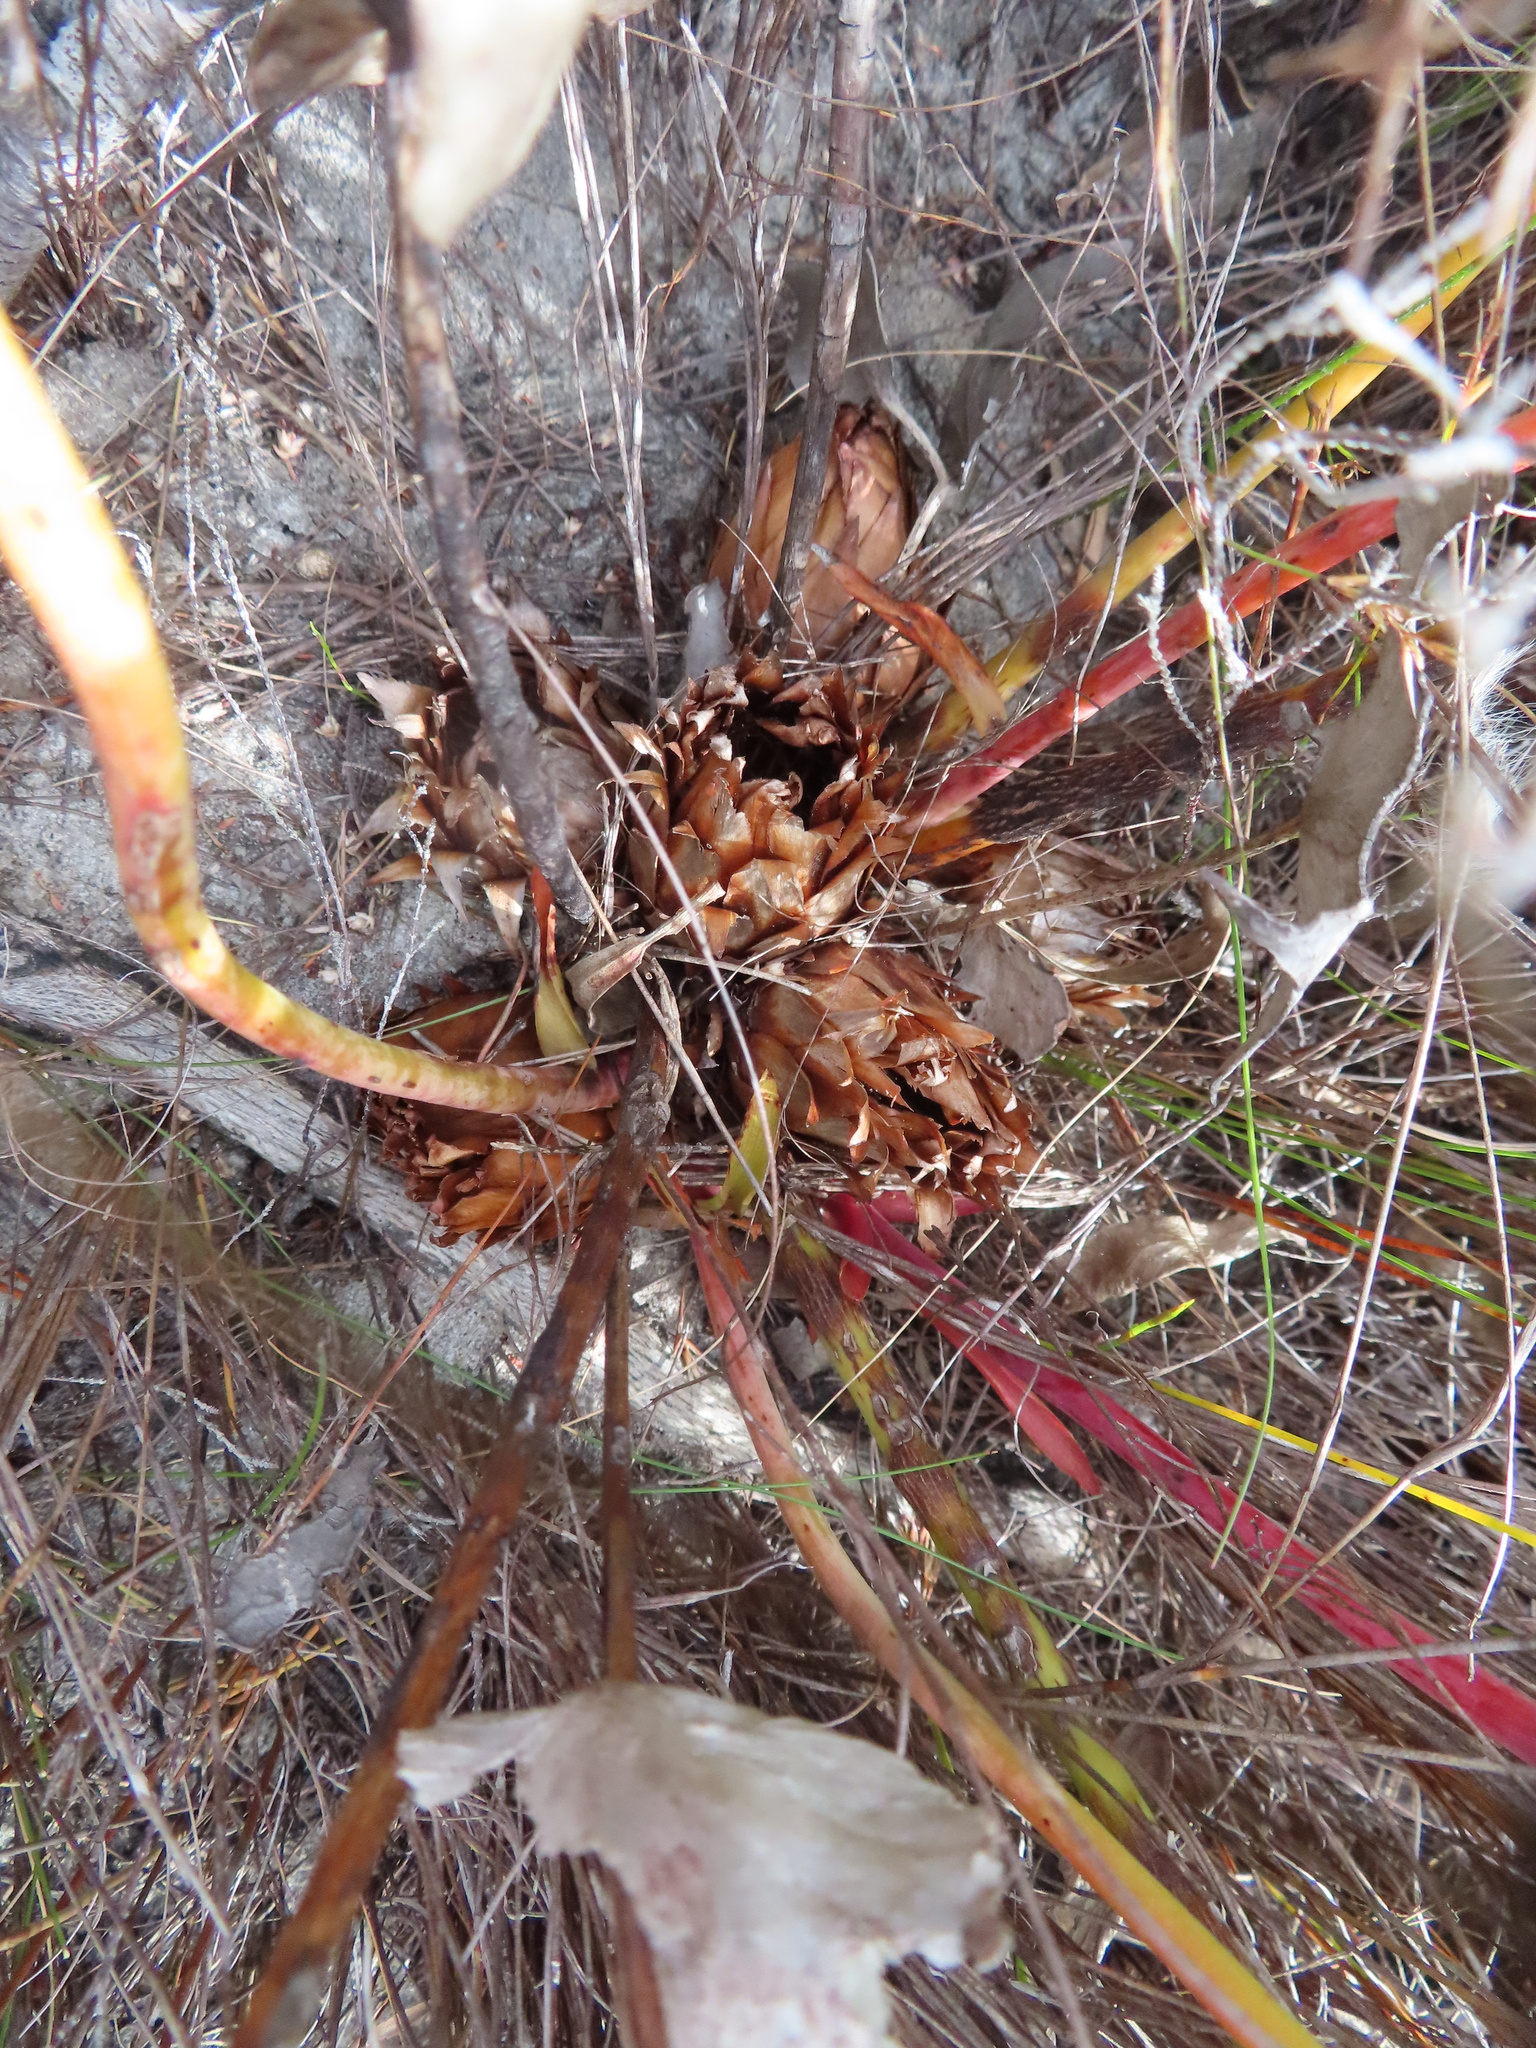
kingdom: Plantae
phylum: Tracheophyta
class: Magnoliopsida
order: Proteales
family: Proteaceae
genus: Protea
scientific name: Protea cordata
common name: Heart-leaf sugarbush
